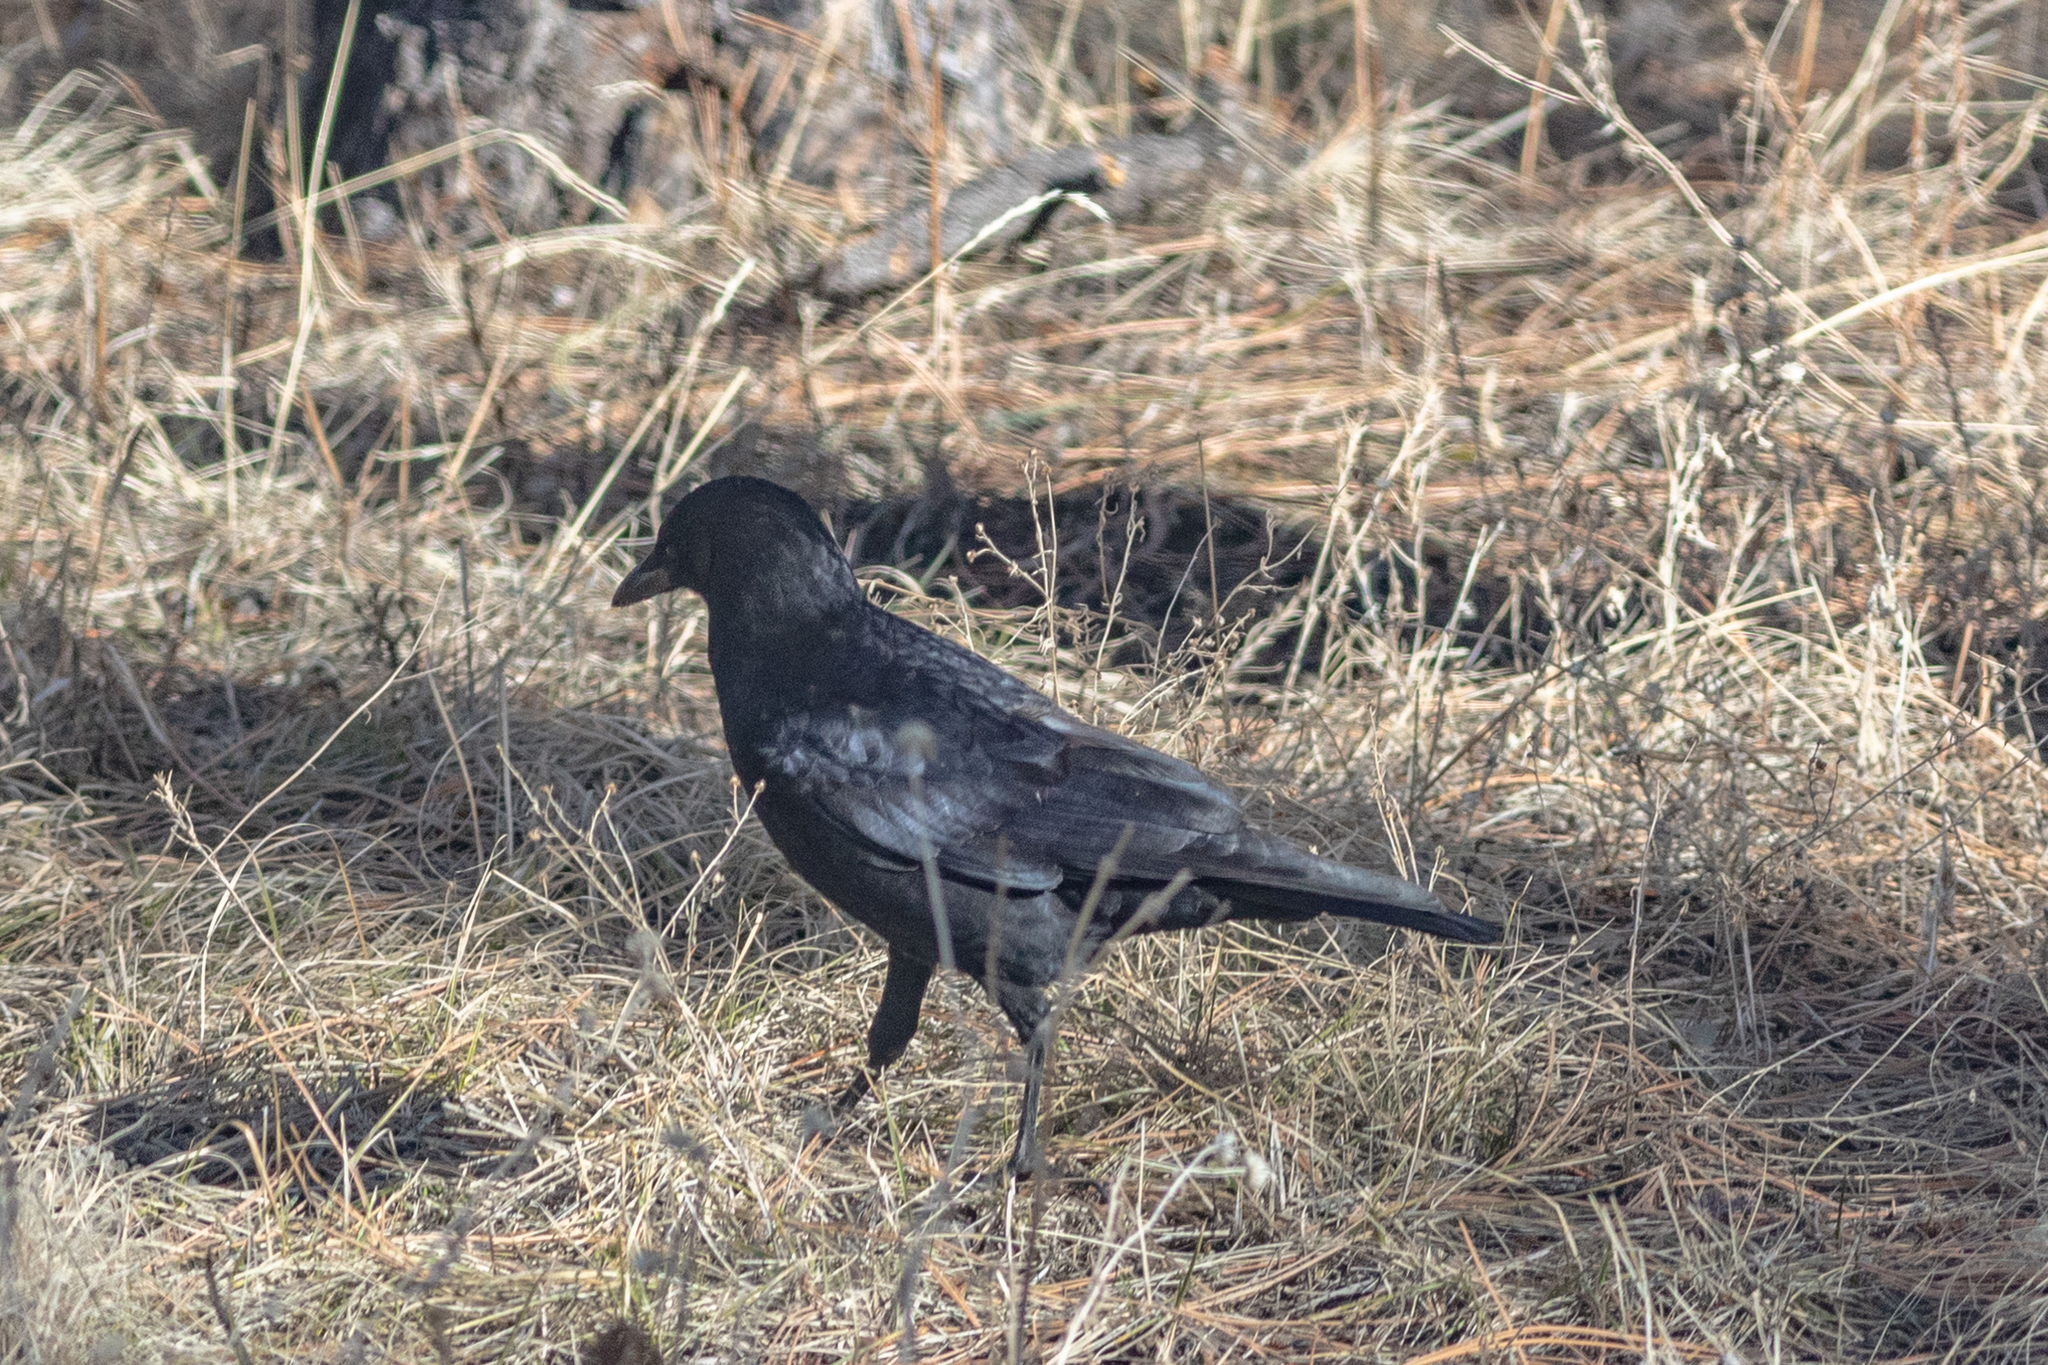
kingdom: Animalia
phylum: Chordata
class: Aves
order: Passeriformes
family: Corvidae
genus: Corvus
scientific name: Corvus brachyrhynchos
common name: American crow
